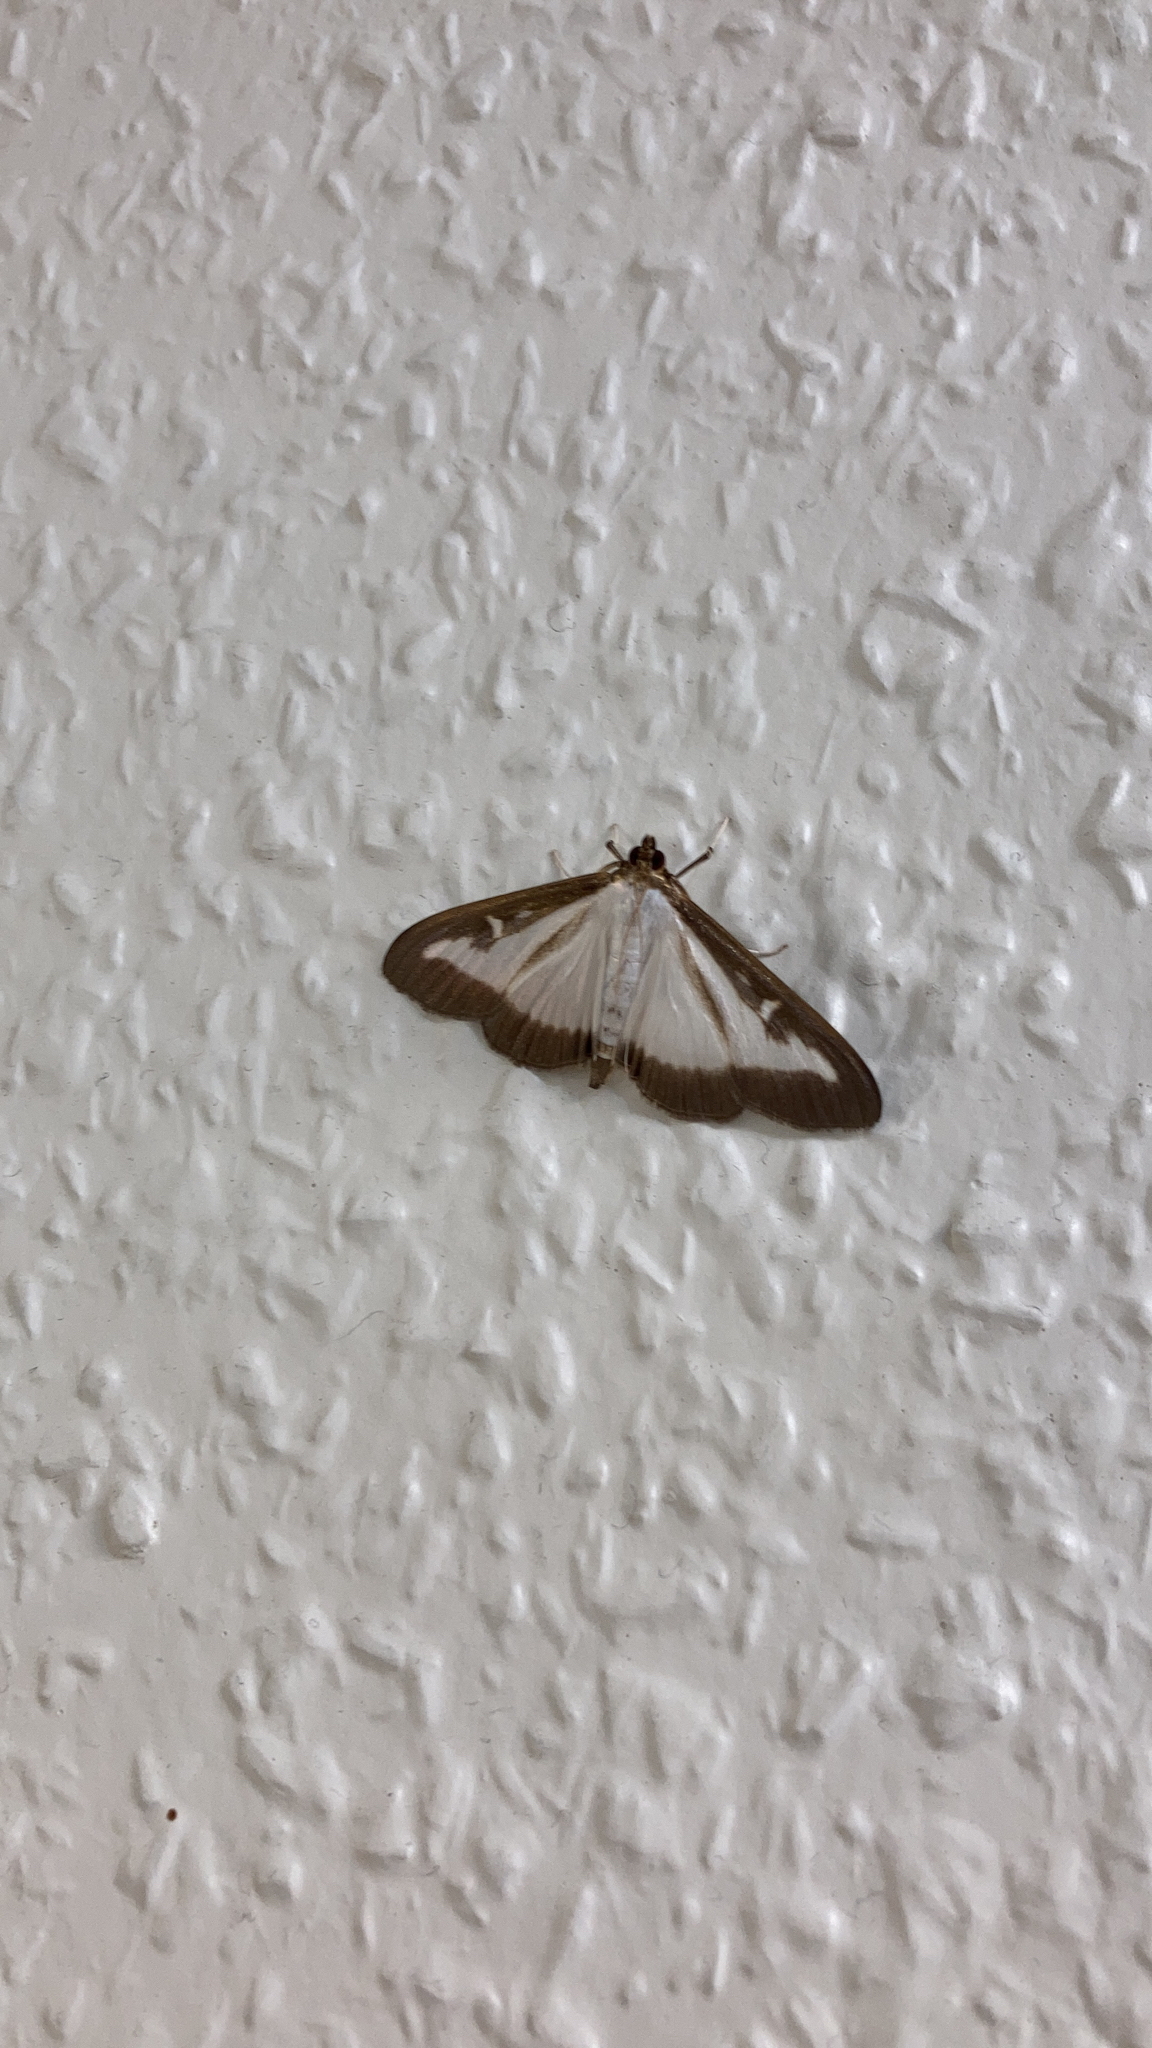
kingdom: Animalia
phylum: Arthropoda
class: Insecta
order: Lepidoptera
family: Crambidae
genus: Cydalima
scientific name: Cydalima perspectalis
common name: Box tree moth
